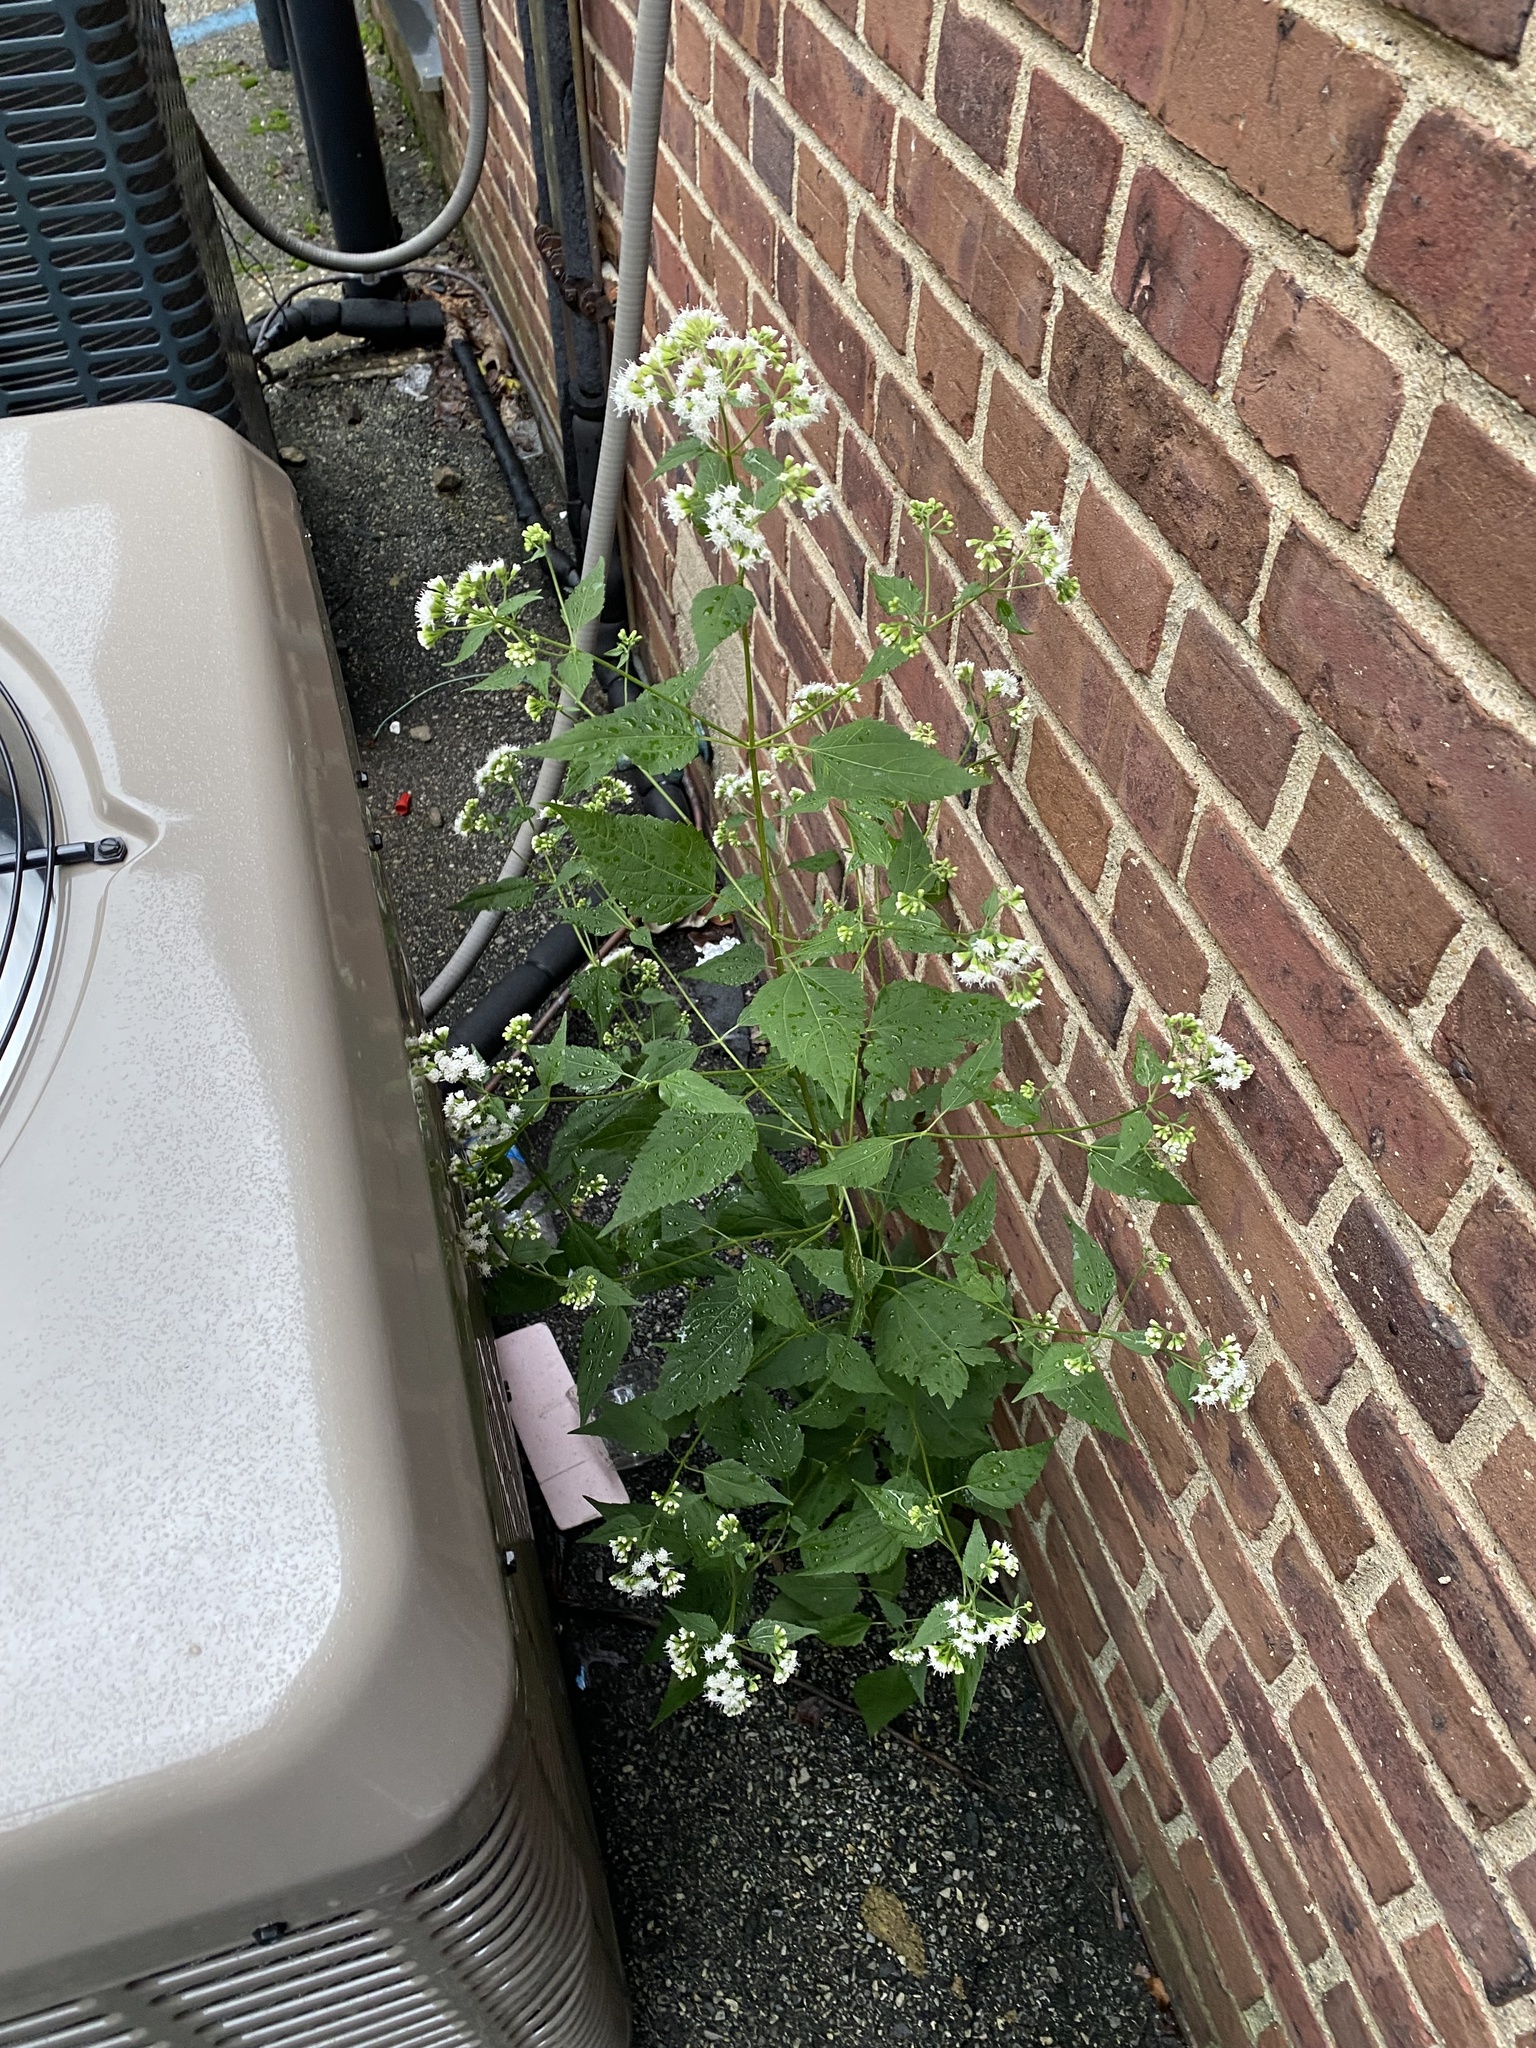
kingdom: Plantae
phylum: Tracheophyta
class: Magnoliopsida
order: Asterales
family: Asteraceae
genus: Ageratina
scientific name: Ageratina altissima
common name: White snakeroot
